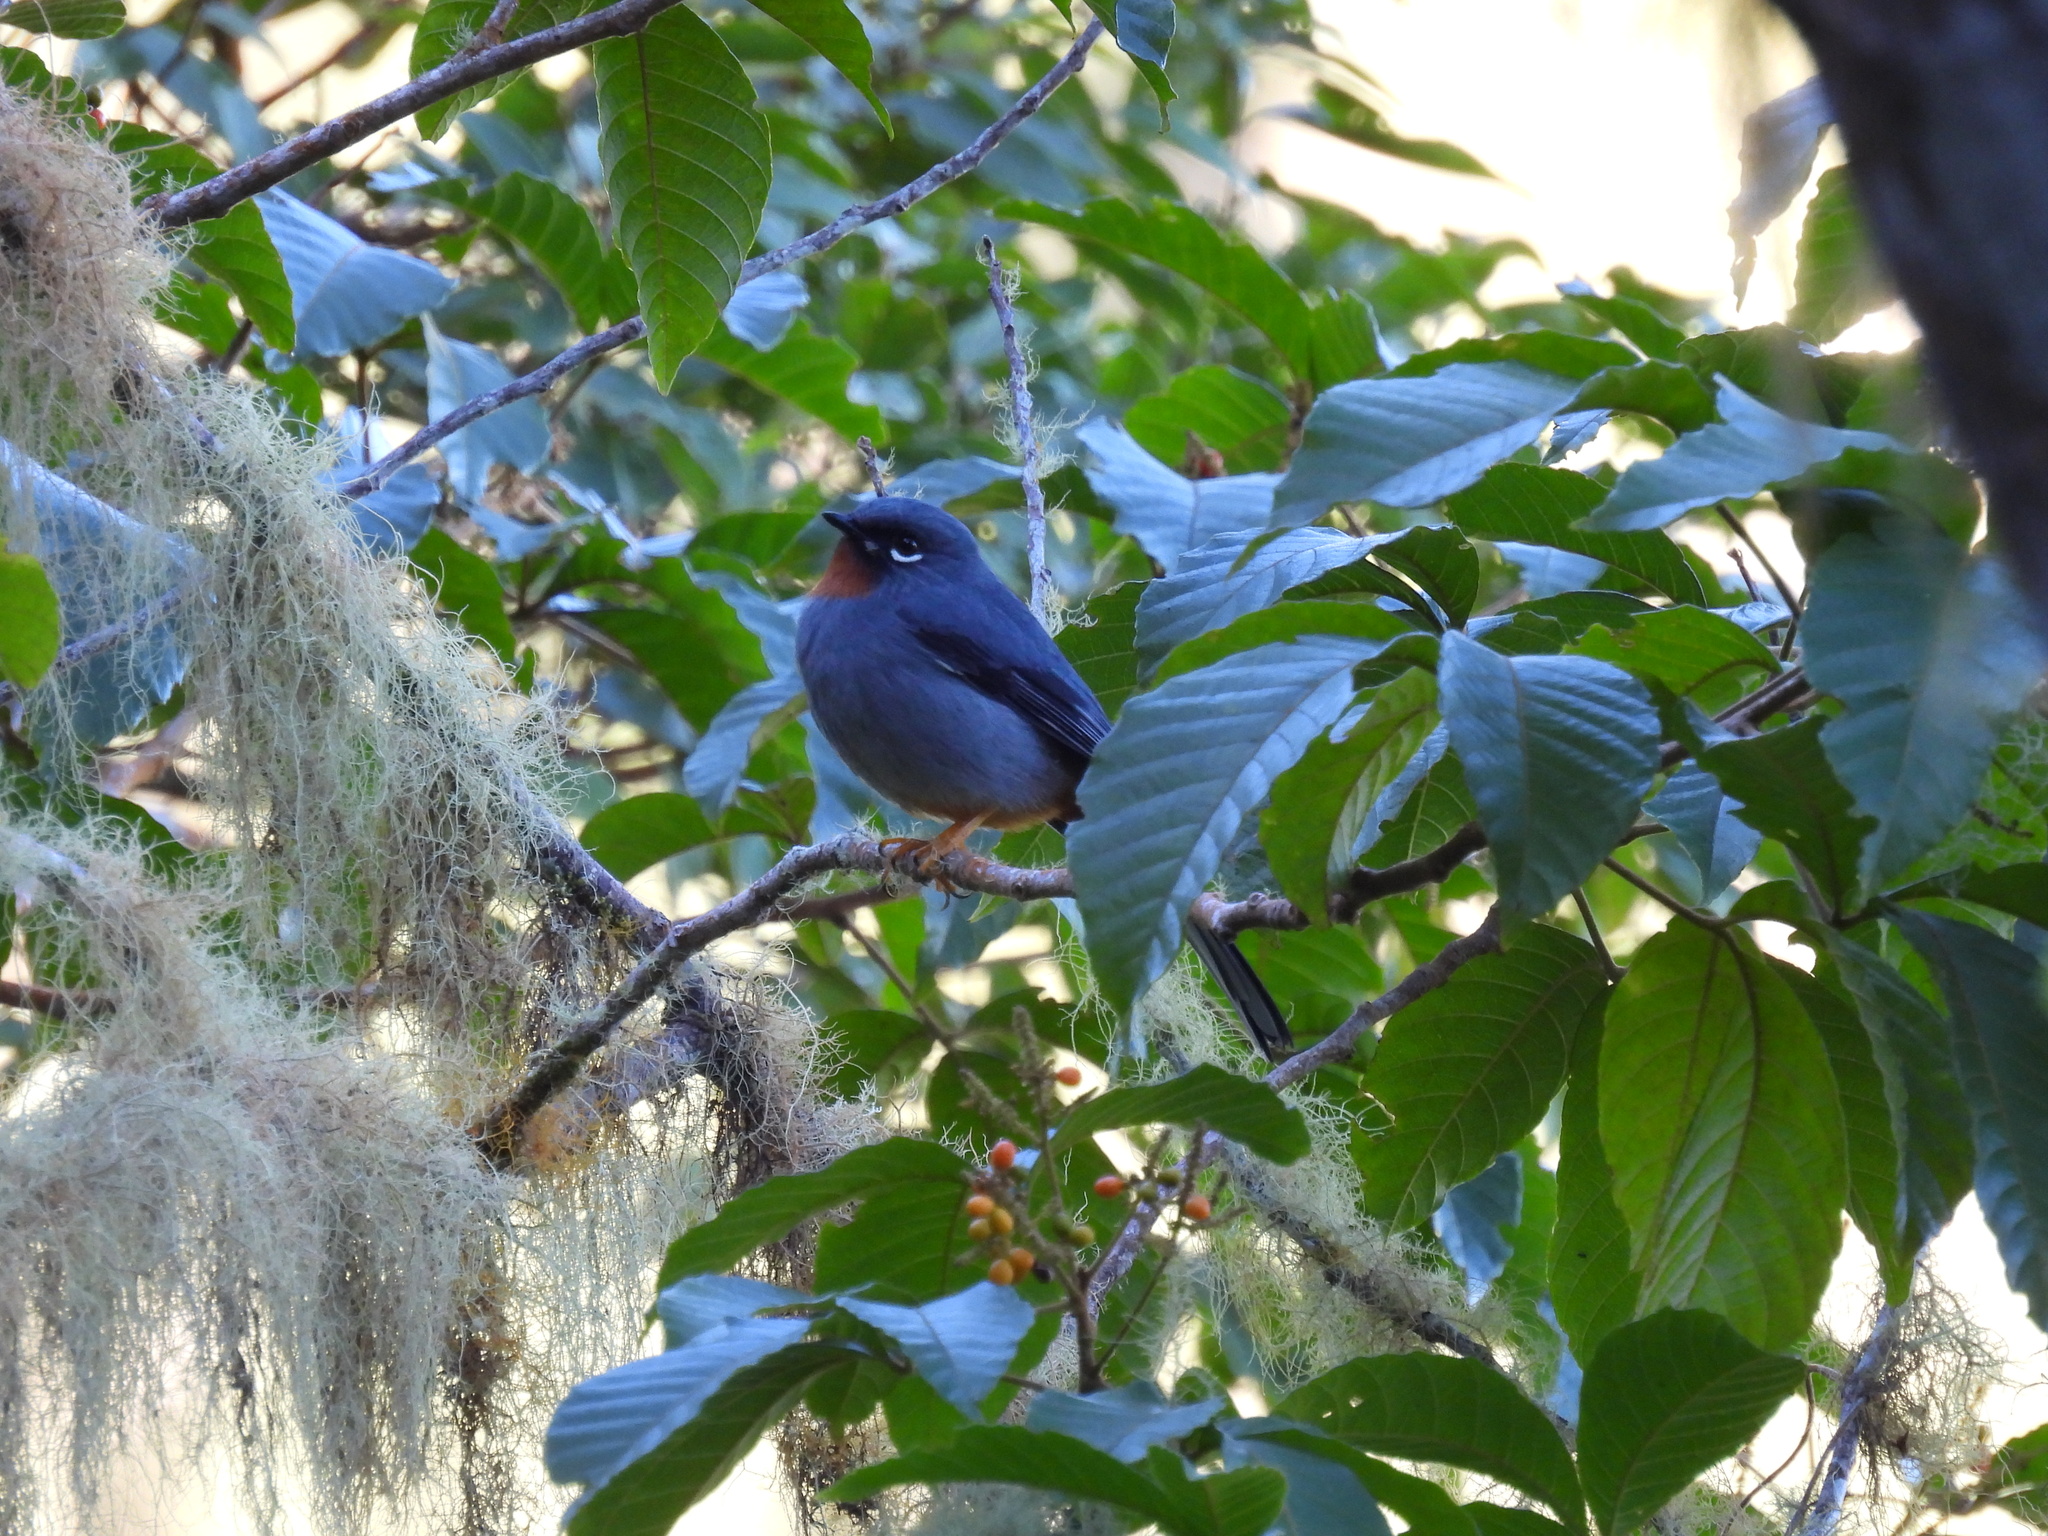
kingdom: Animalia
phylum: Chordata
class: Aves
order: Passeriformes
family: Turdidae
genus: Myadestes
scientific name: Myadestes genibarbis
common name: Rufous-throated solitaire
